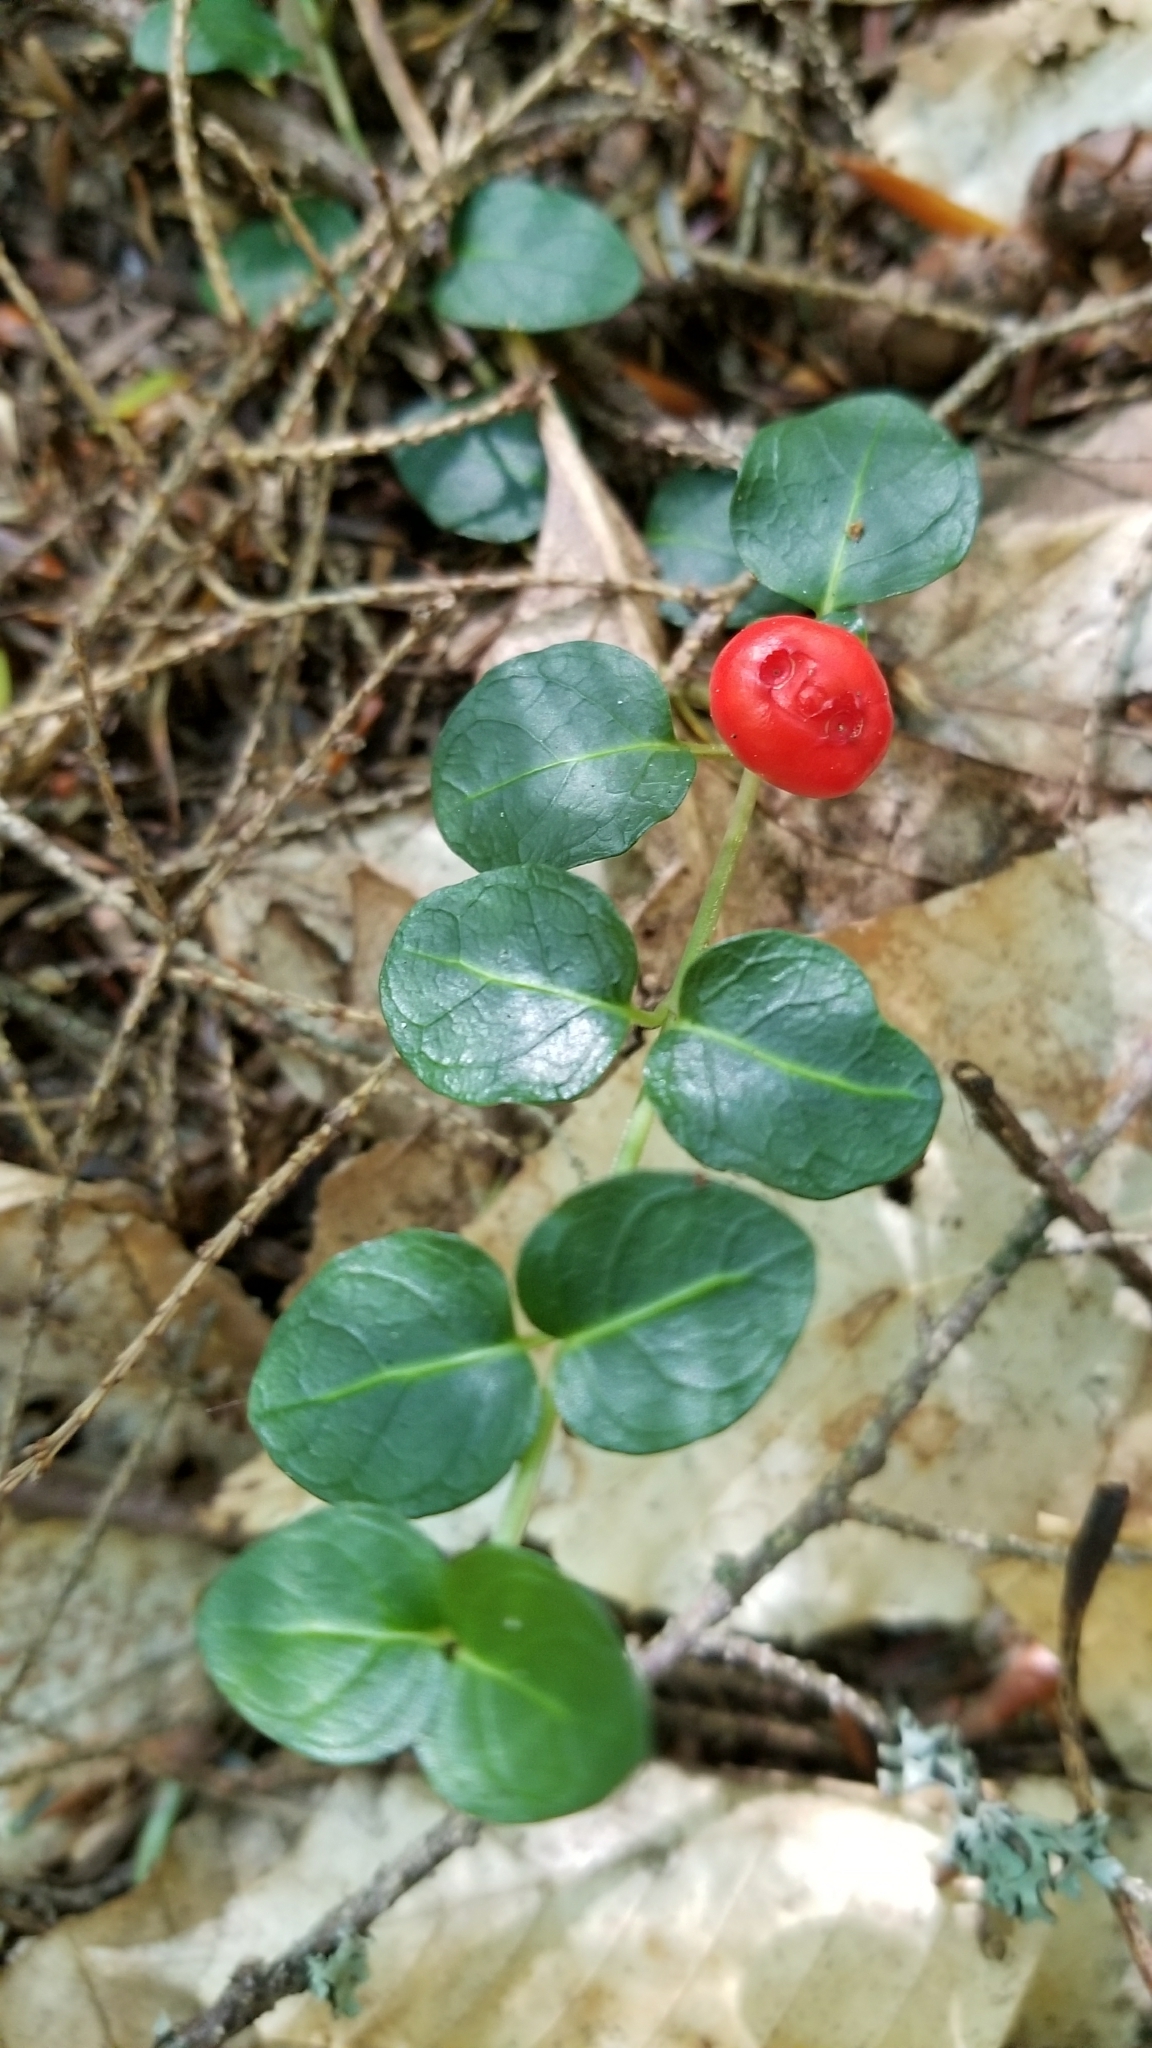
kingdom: Plantae
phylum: Tracheophyta
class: Magnoliopsida
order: Gentianales
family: Rubiaceae
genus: Mitchella
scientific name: Mitchella repens
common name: Partridge-berry
